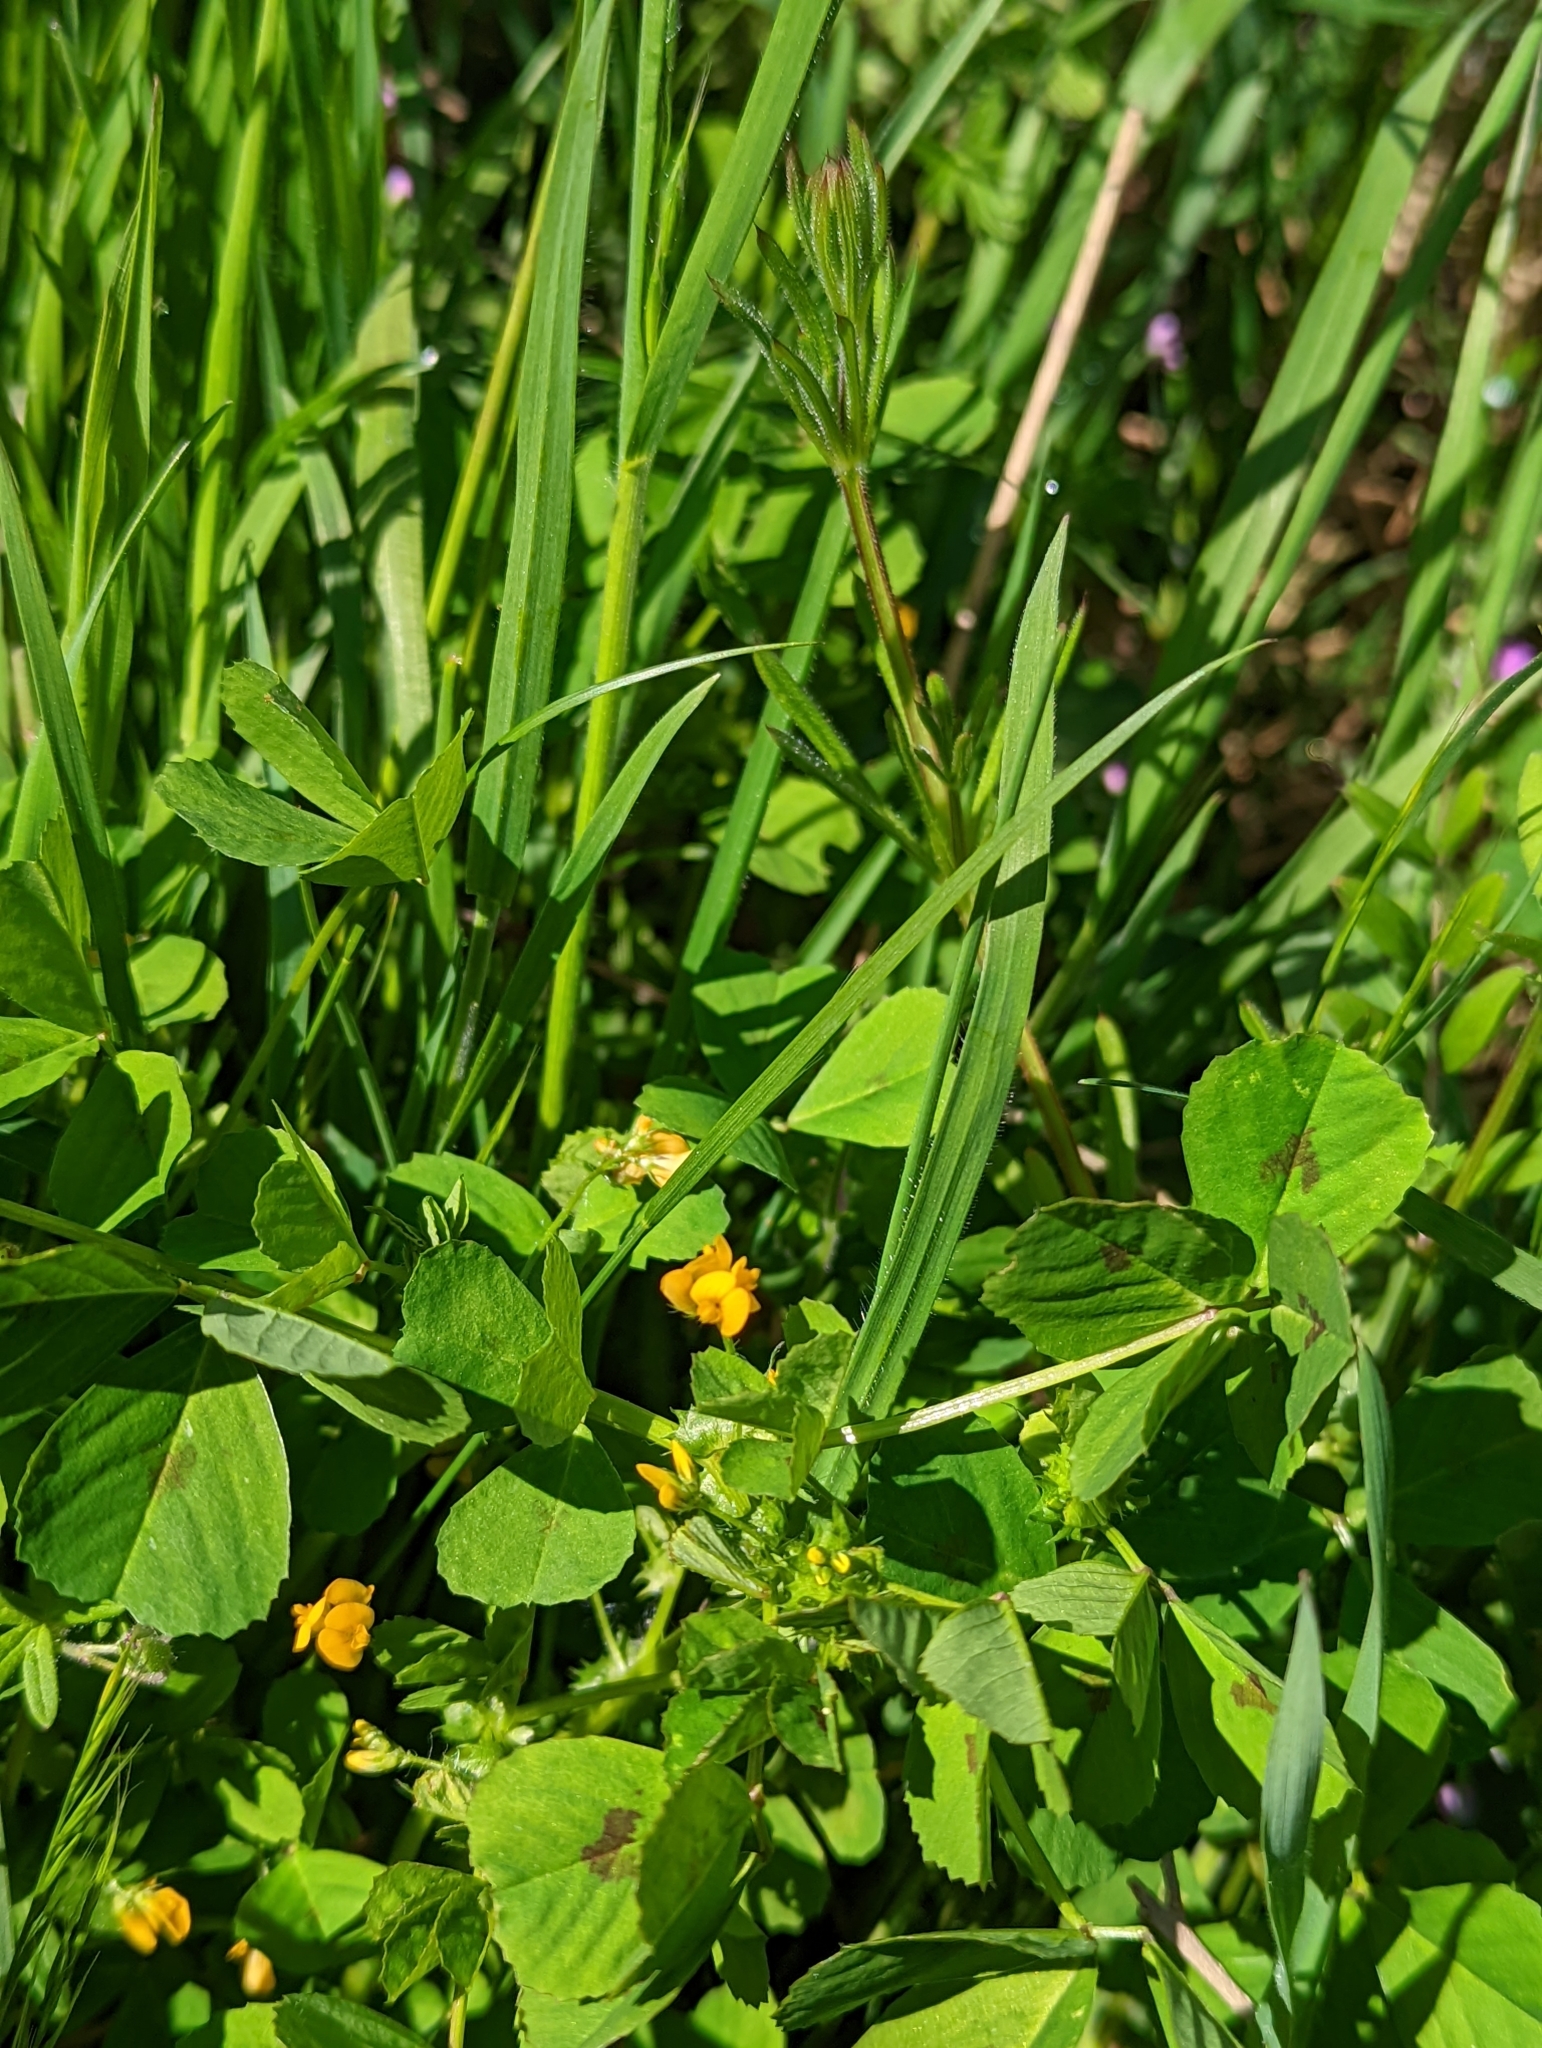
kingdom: Plantae
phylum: Tracheophyta
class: Magnoliopsida
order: Fabales
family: Fabaceae
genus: Medicago
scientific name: Medicago arabica
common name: Spotted medick
